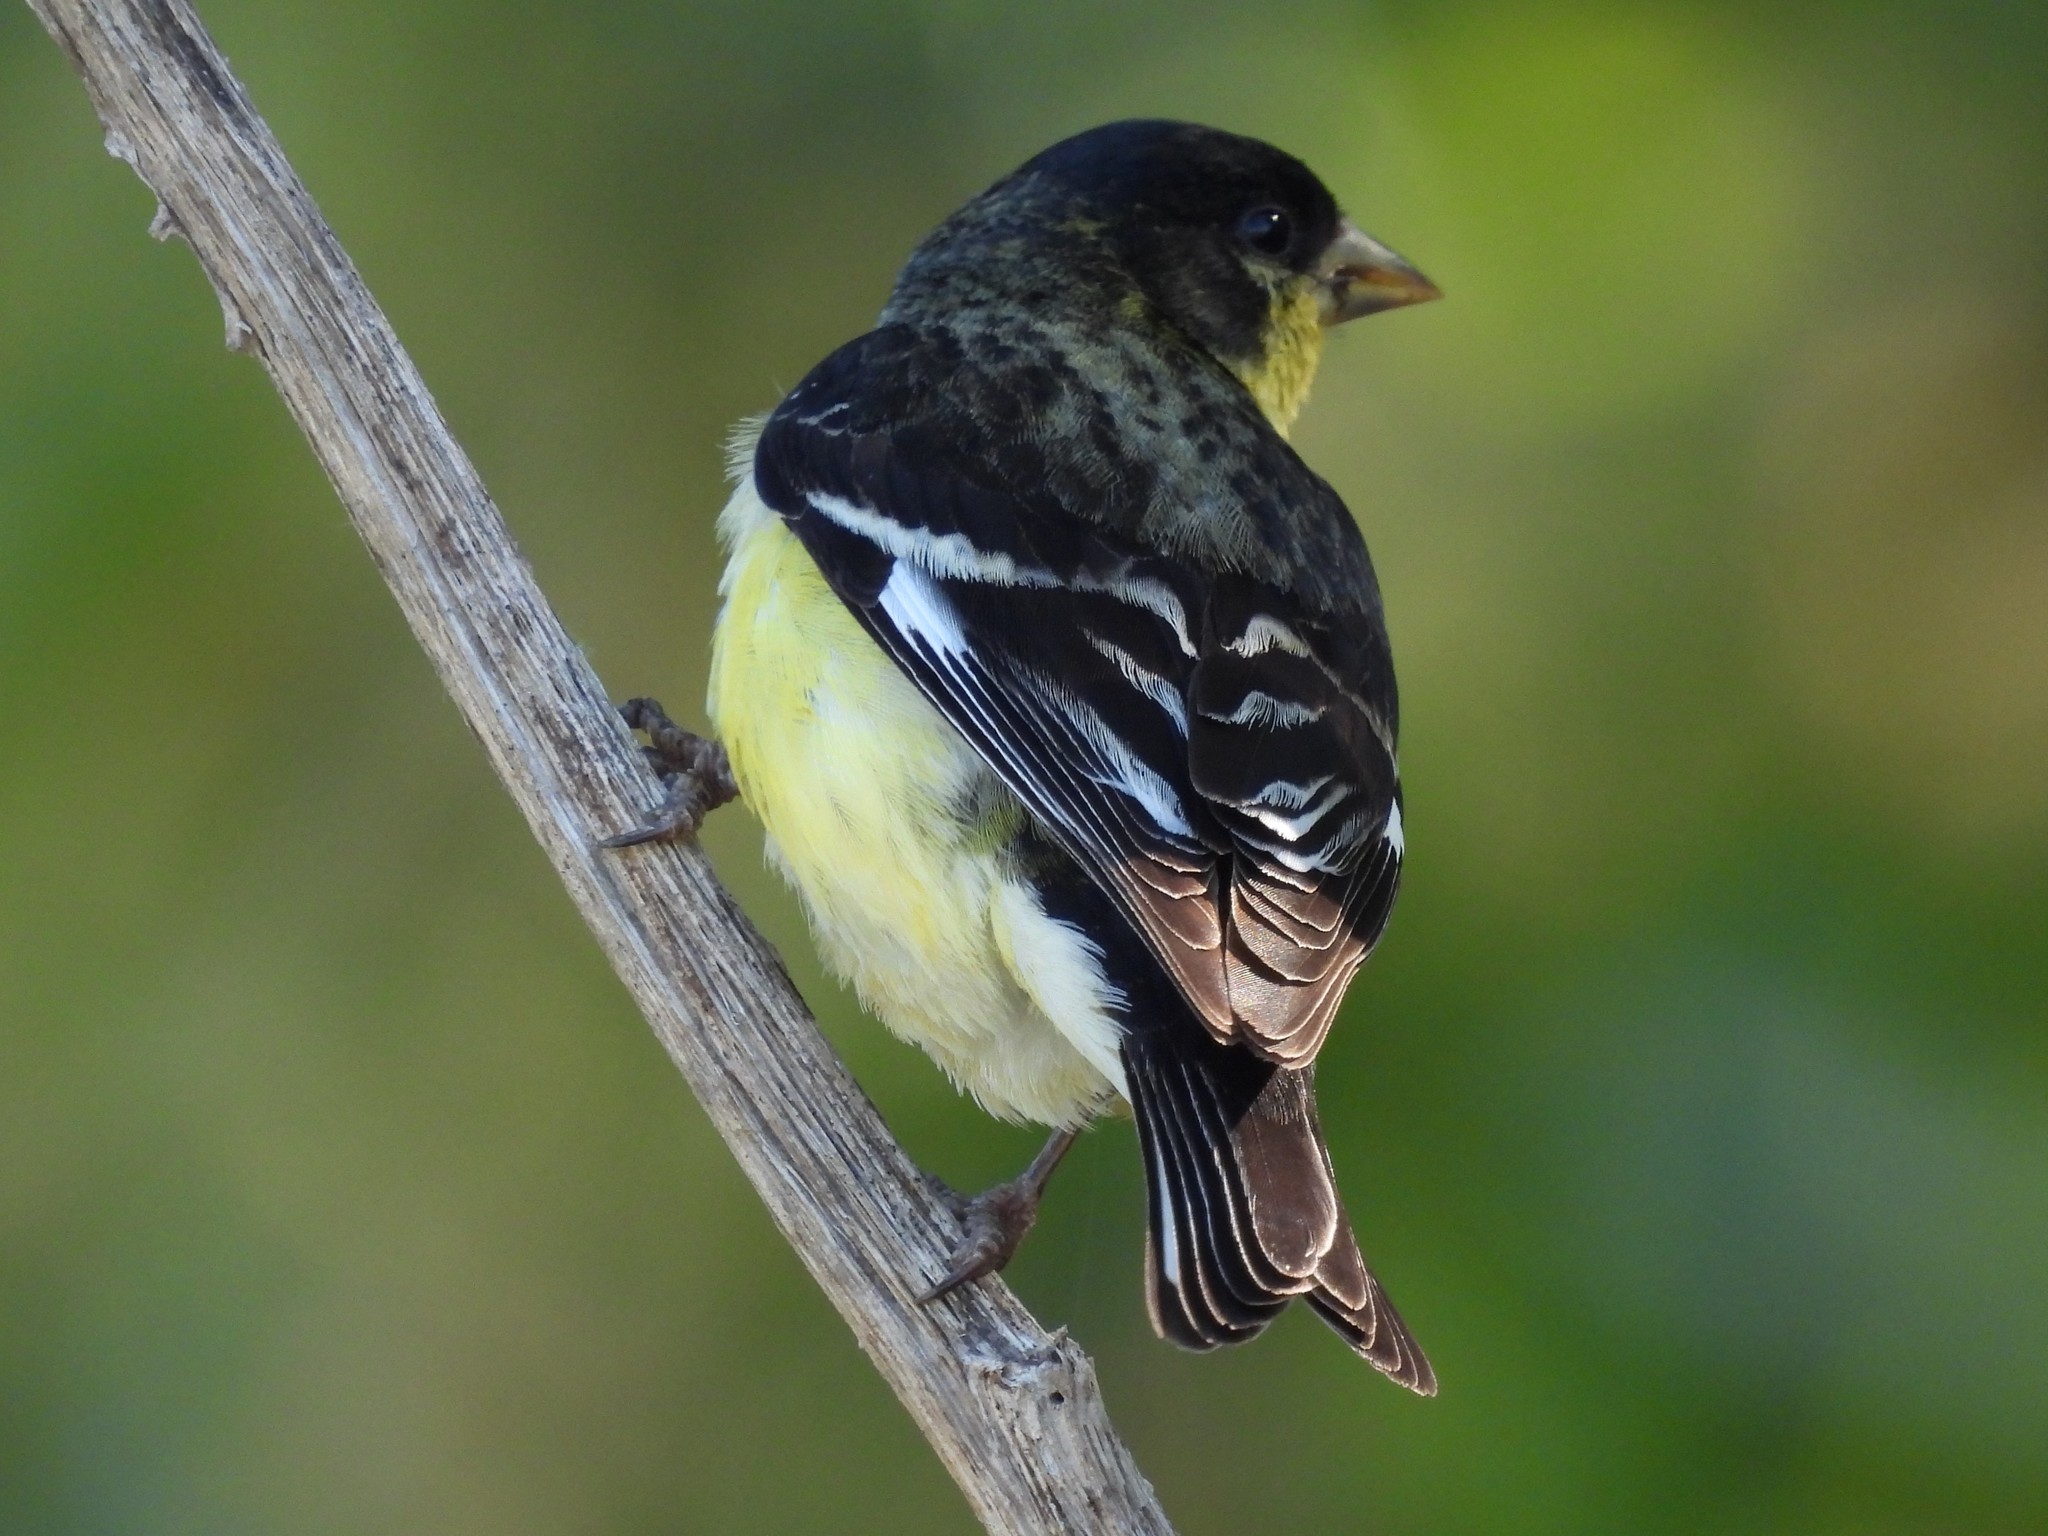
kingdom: Animalia
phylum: Chordata
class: Aves
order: Passeriformes
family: Fringillidae
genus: Spinus
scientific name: Spinus psaltria
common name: Lesser goldfinch
